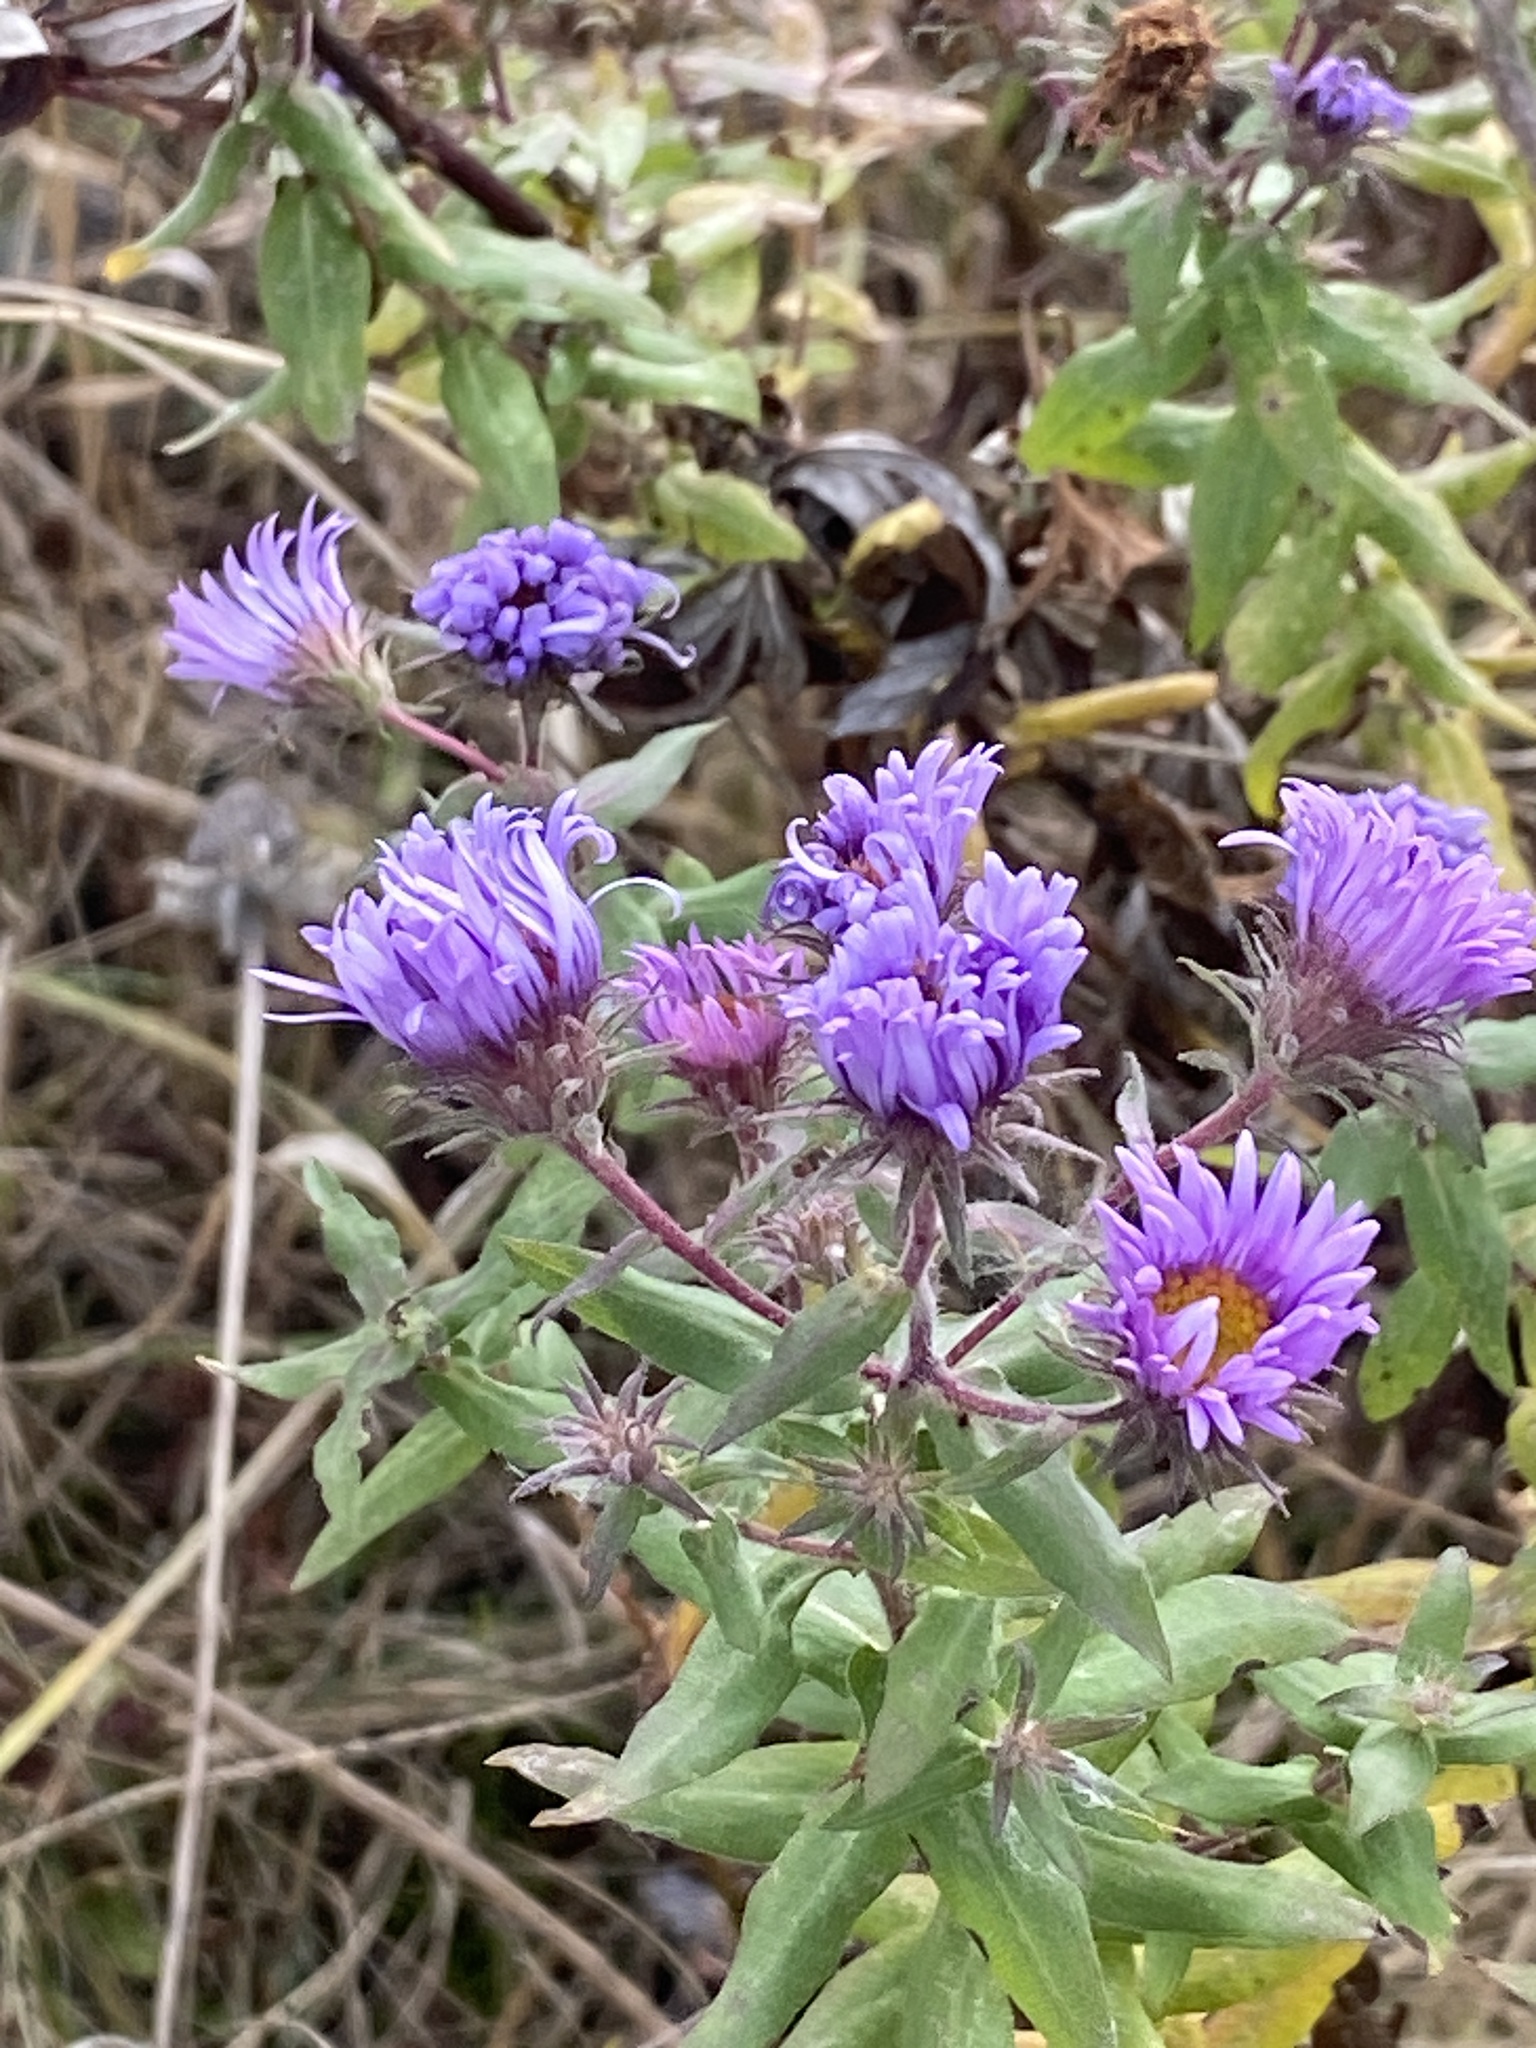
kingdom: Plantae
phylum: Tracheophyta
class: Magnoliopsida
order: Asterales
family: Asteraceae
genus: Symphyotrichum
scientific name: Symphyotrichum novae-angliae
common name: Michaelmas daisy
